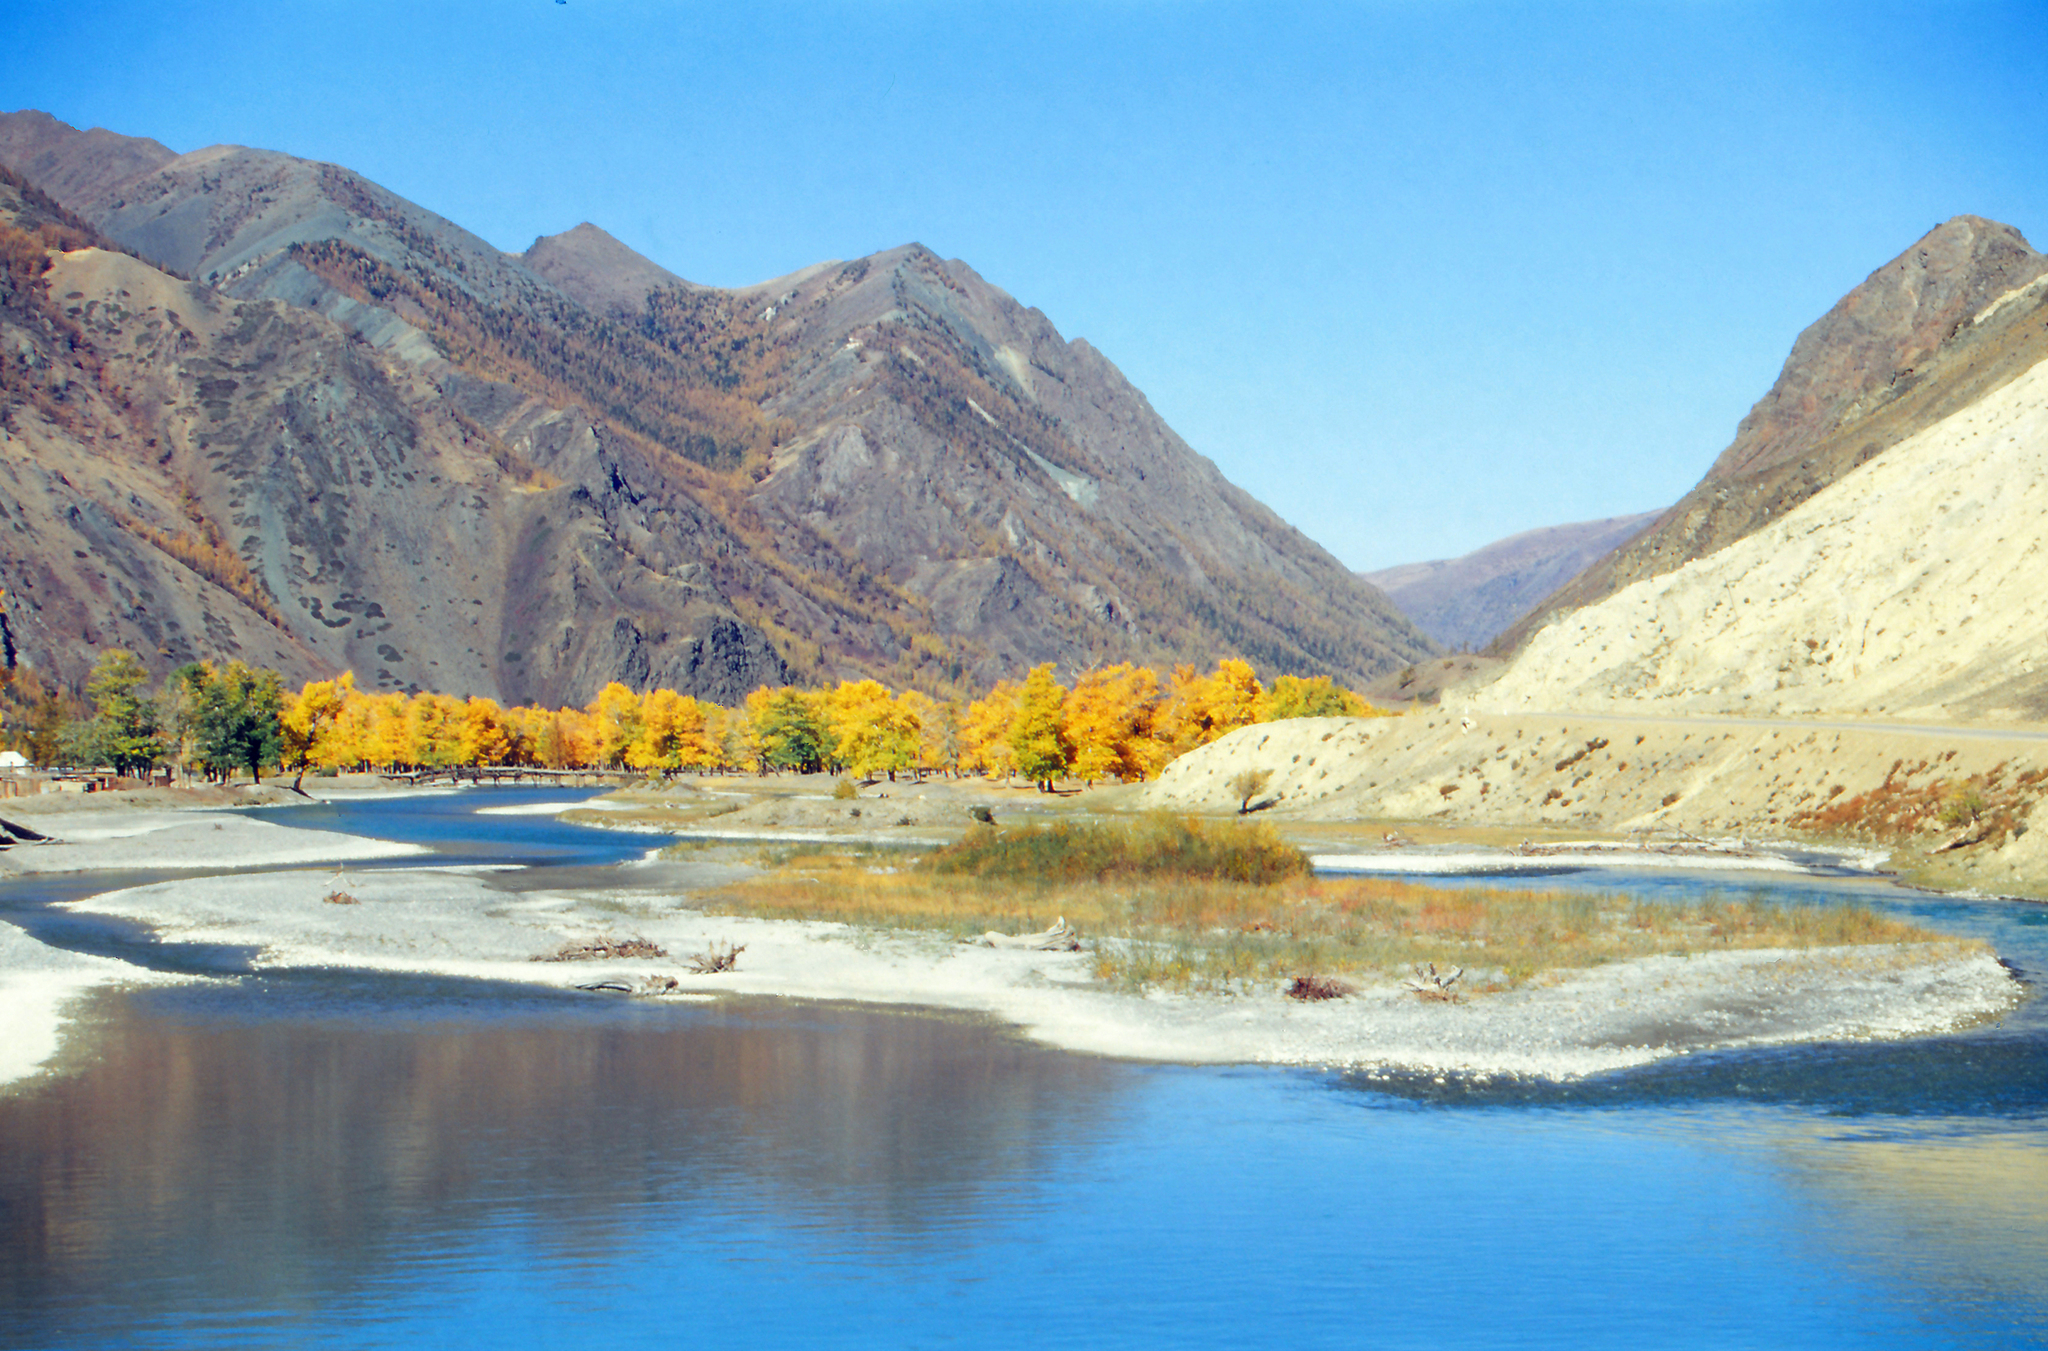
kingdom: Plantae
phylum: Tracheophyta
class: Magnoliopsida
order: Malpighiales
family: Salicaceae
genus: Populus
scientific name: Populus laurifolia
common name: Laurel-leaf poplar
